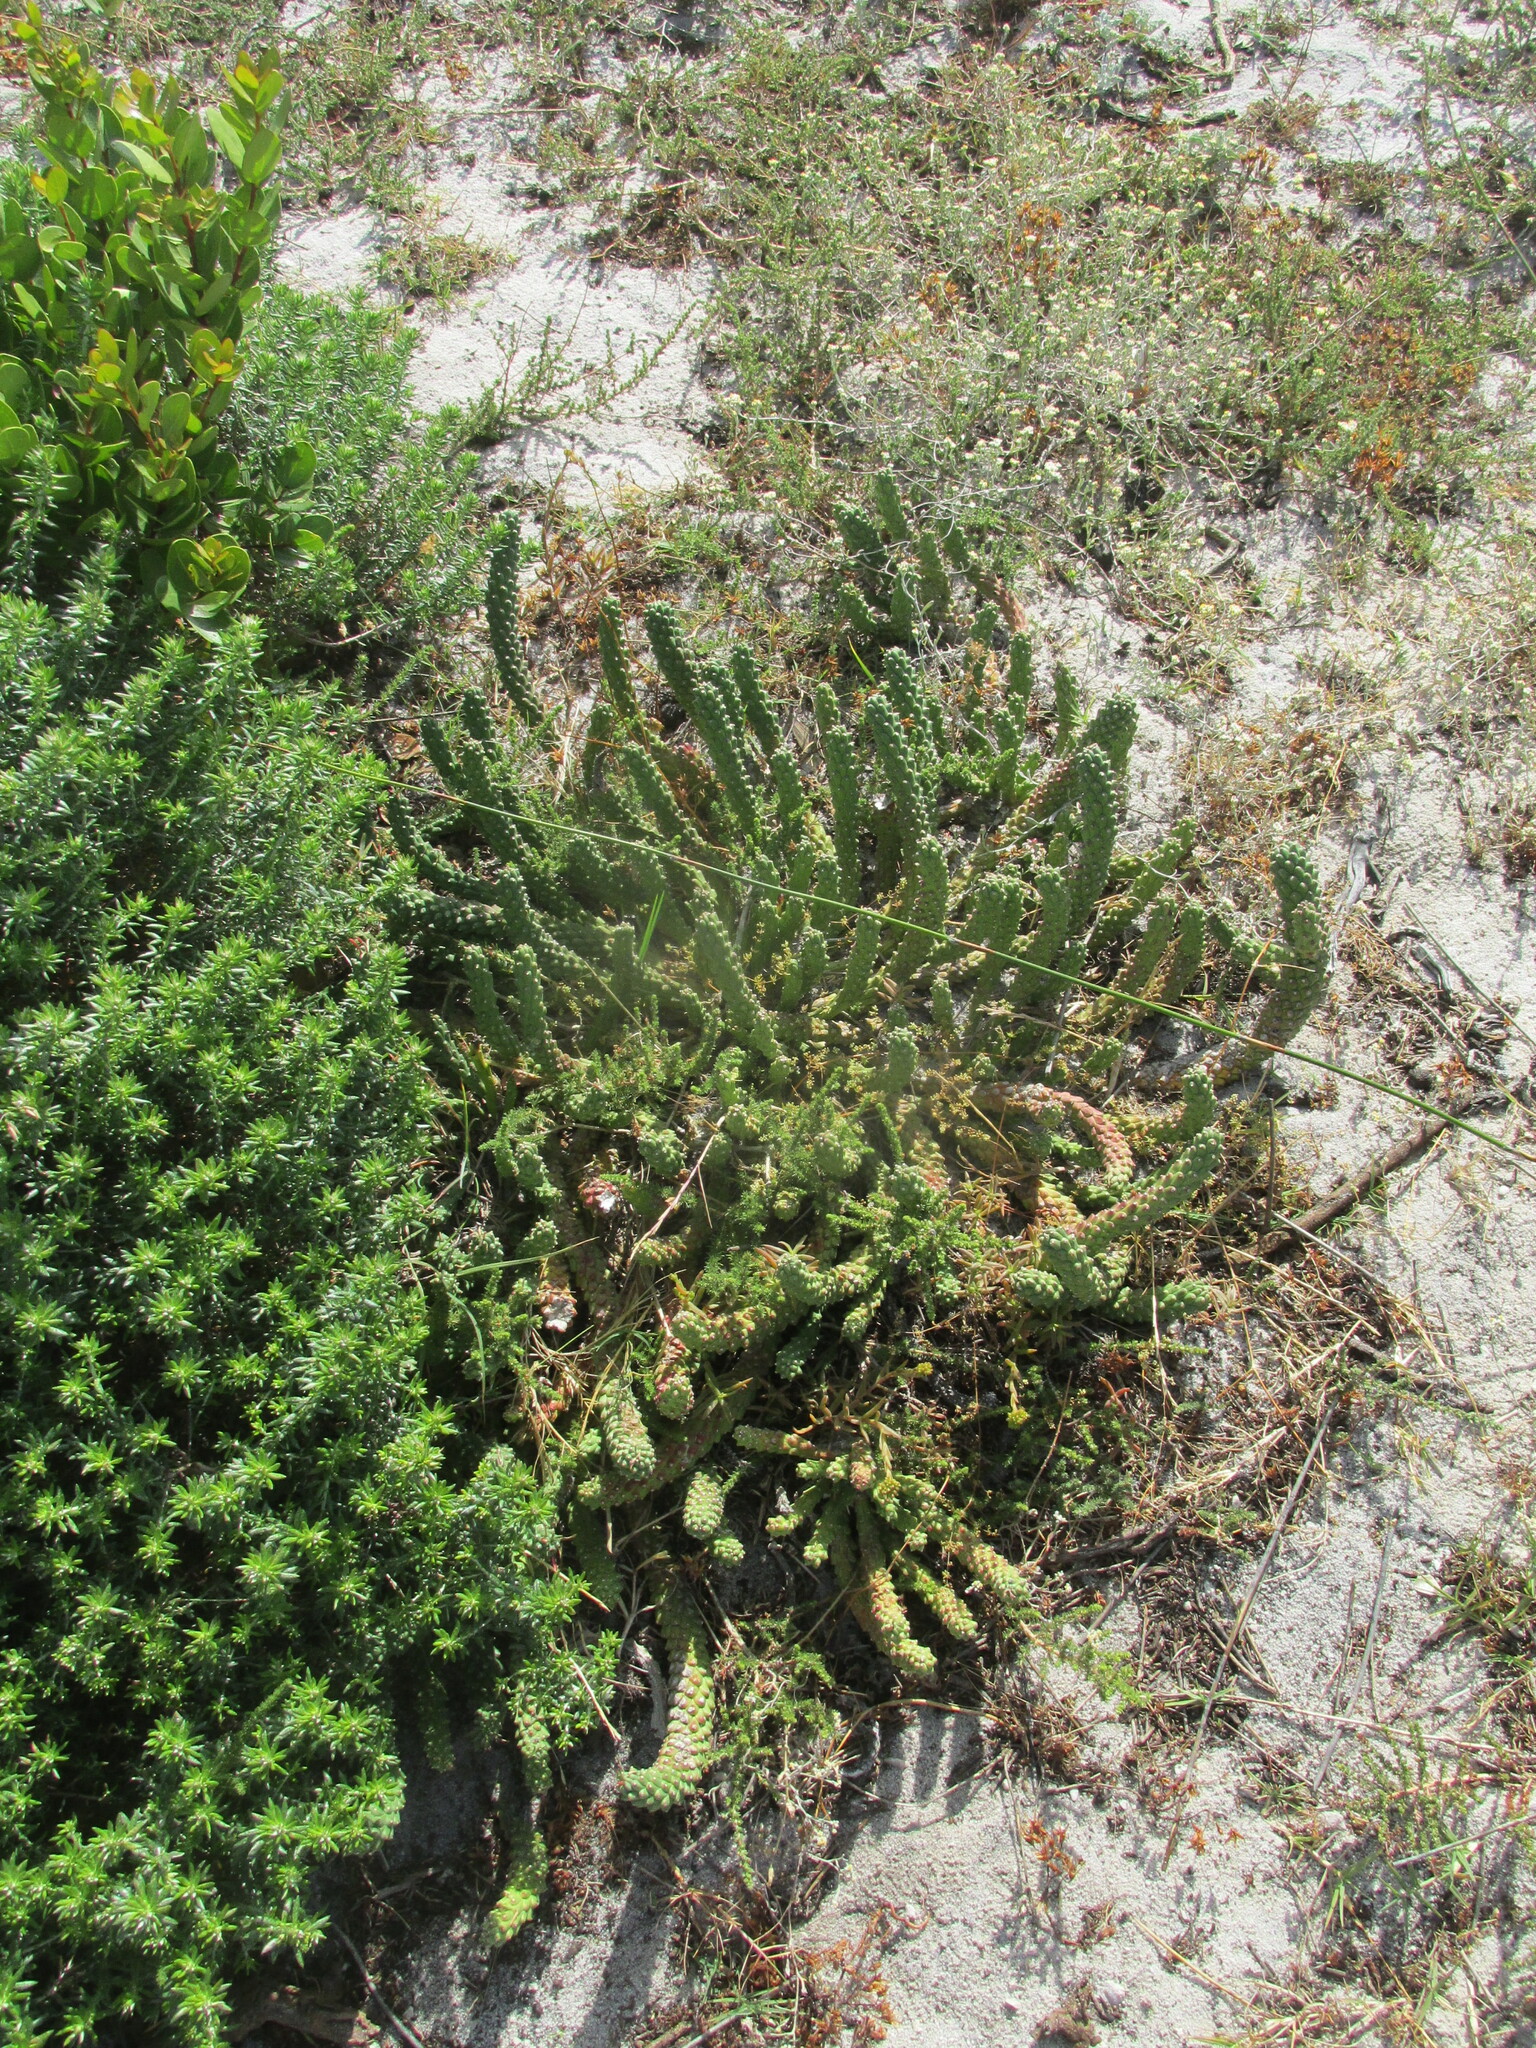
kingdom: Plantae
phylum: Tracheophyta
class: Magnoliopsida
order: Malpighiales
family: Euphorbiaceae
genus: Euphorbia
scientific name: Euphorbia caput-medusae
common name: Medusa's-head
